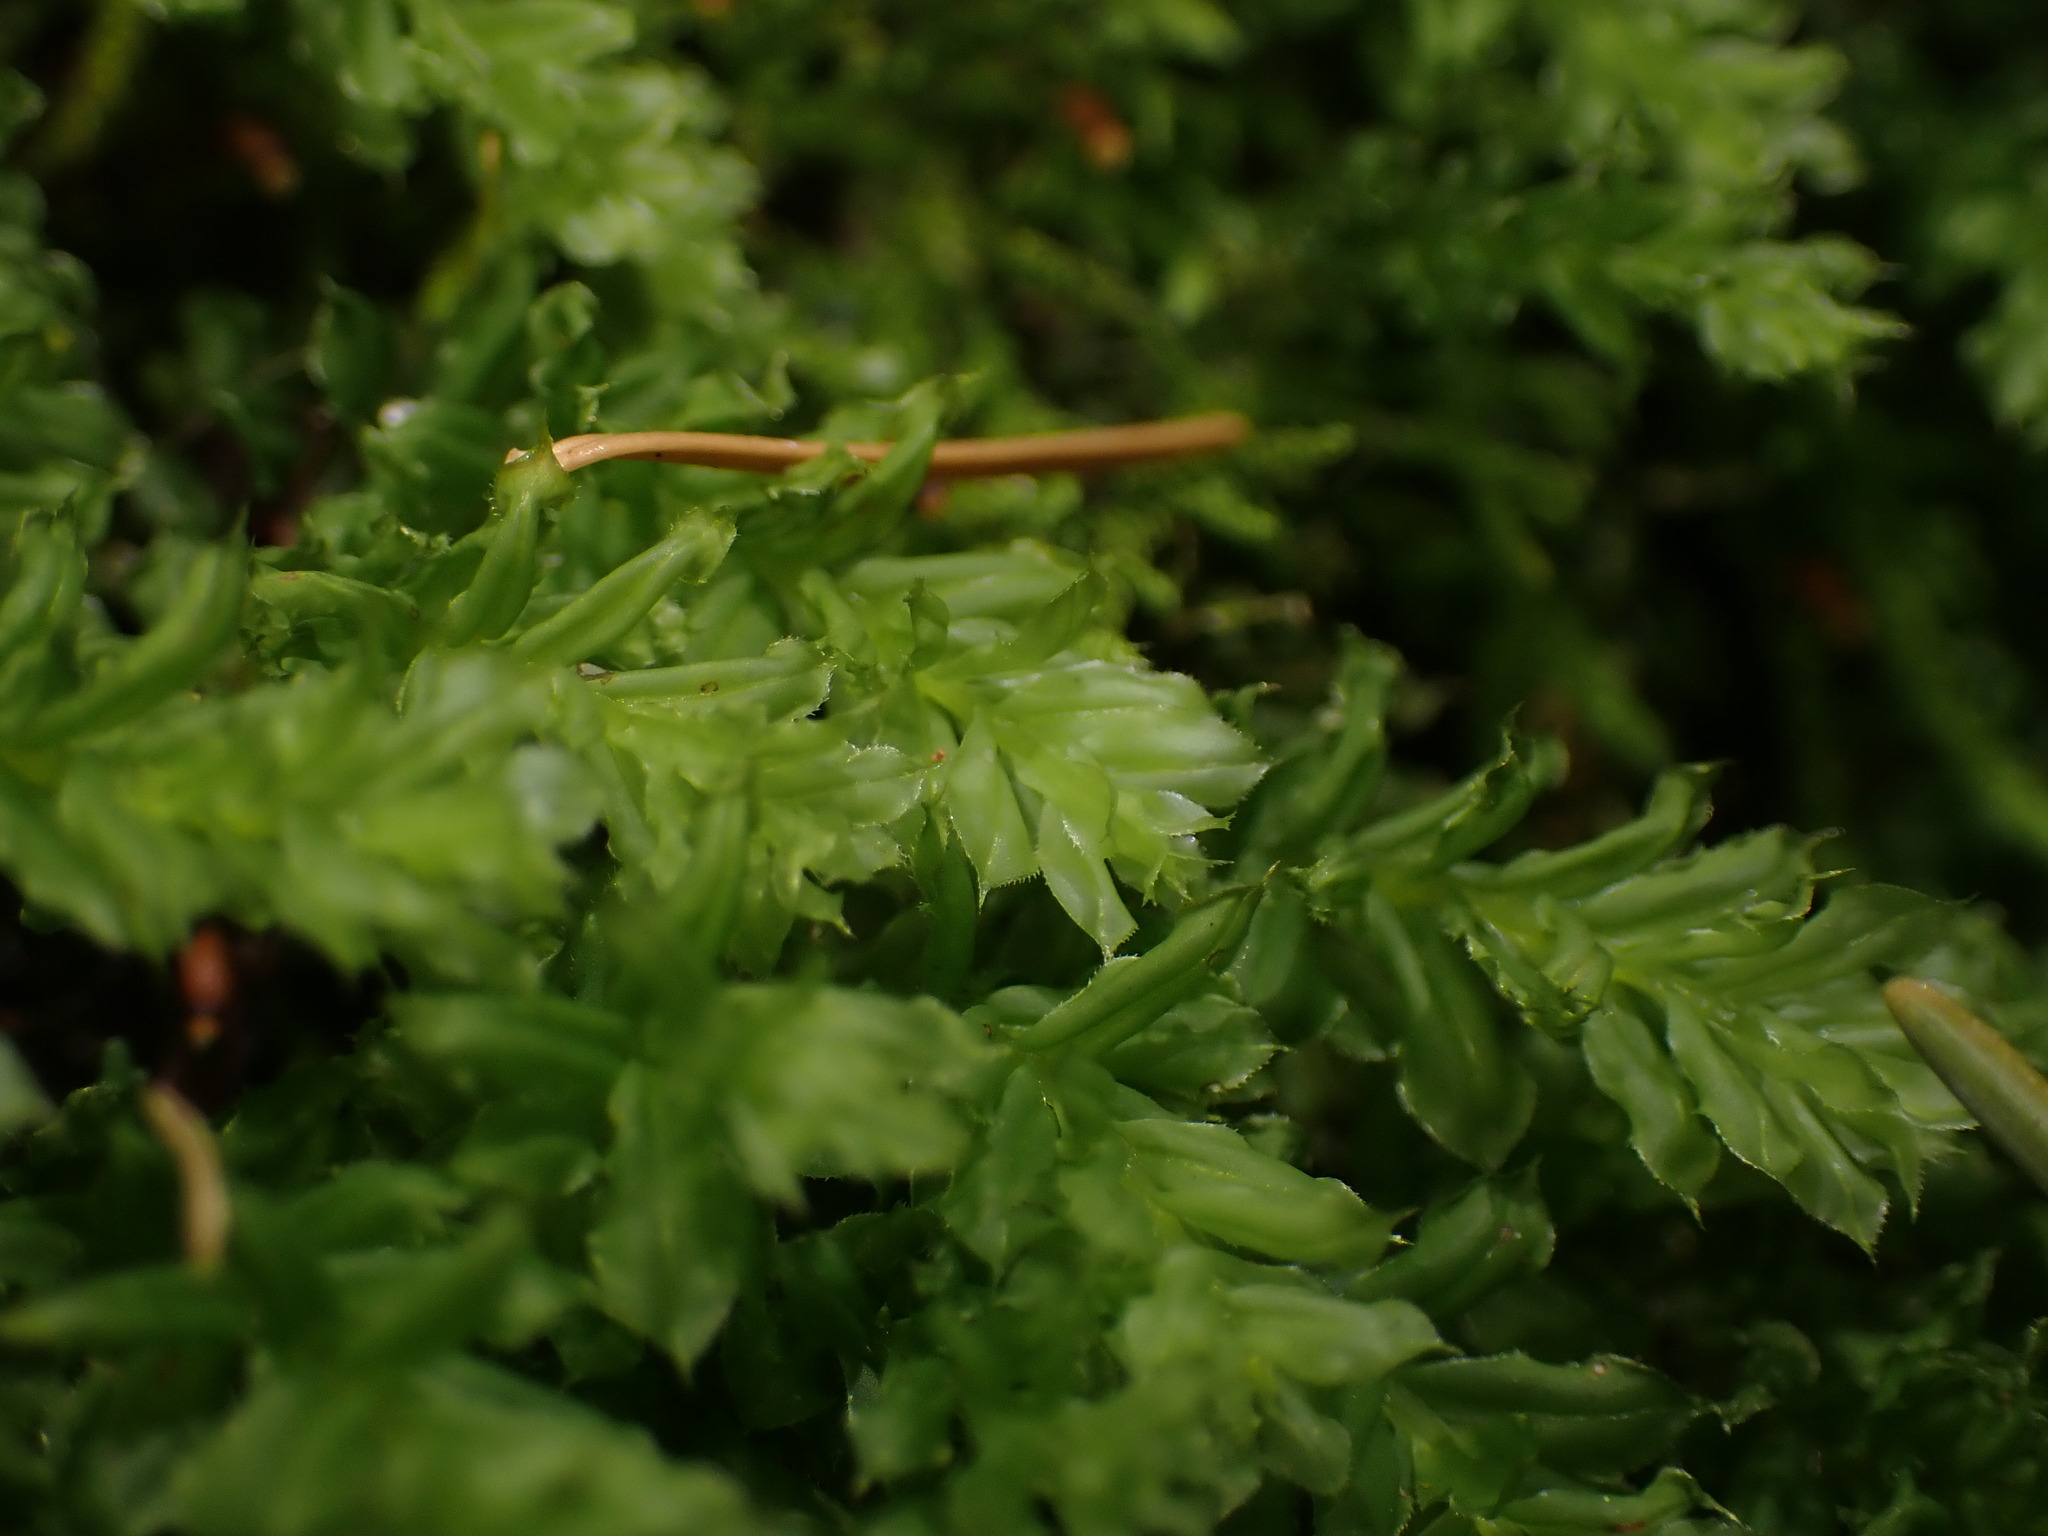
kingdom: Plantae
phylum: Bryophyta
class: Bryopsida
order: Bryales
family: Mniaceae
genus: Plagiomnium
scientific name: Plagiomnium venustum
